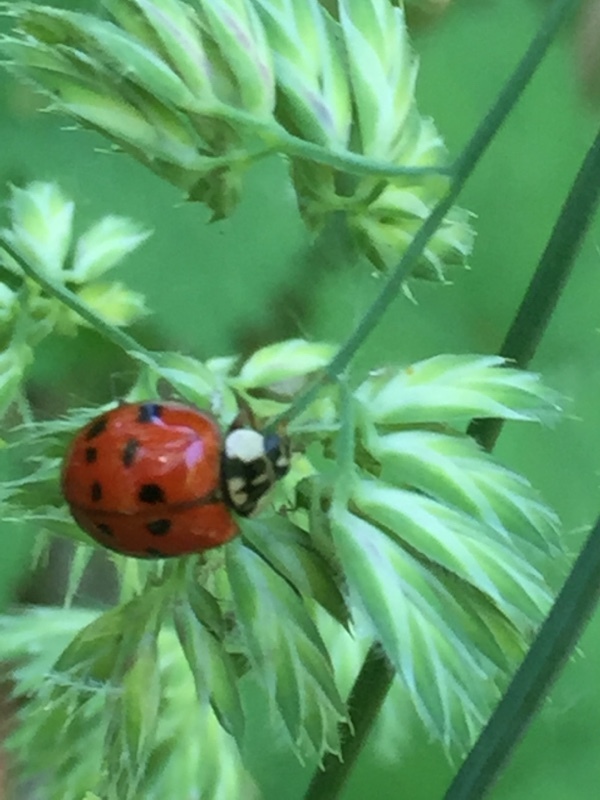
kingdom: Animalia
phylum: Arthropoda
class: Insecta
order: Coleoptera
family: Coccinellidae
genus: Harmonia
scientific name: Harmonia axyridis
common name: Harlequin ladybird
